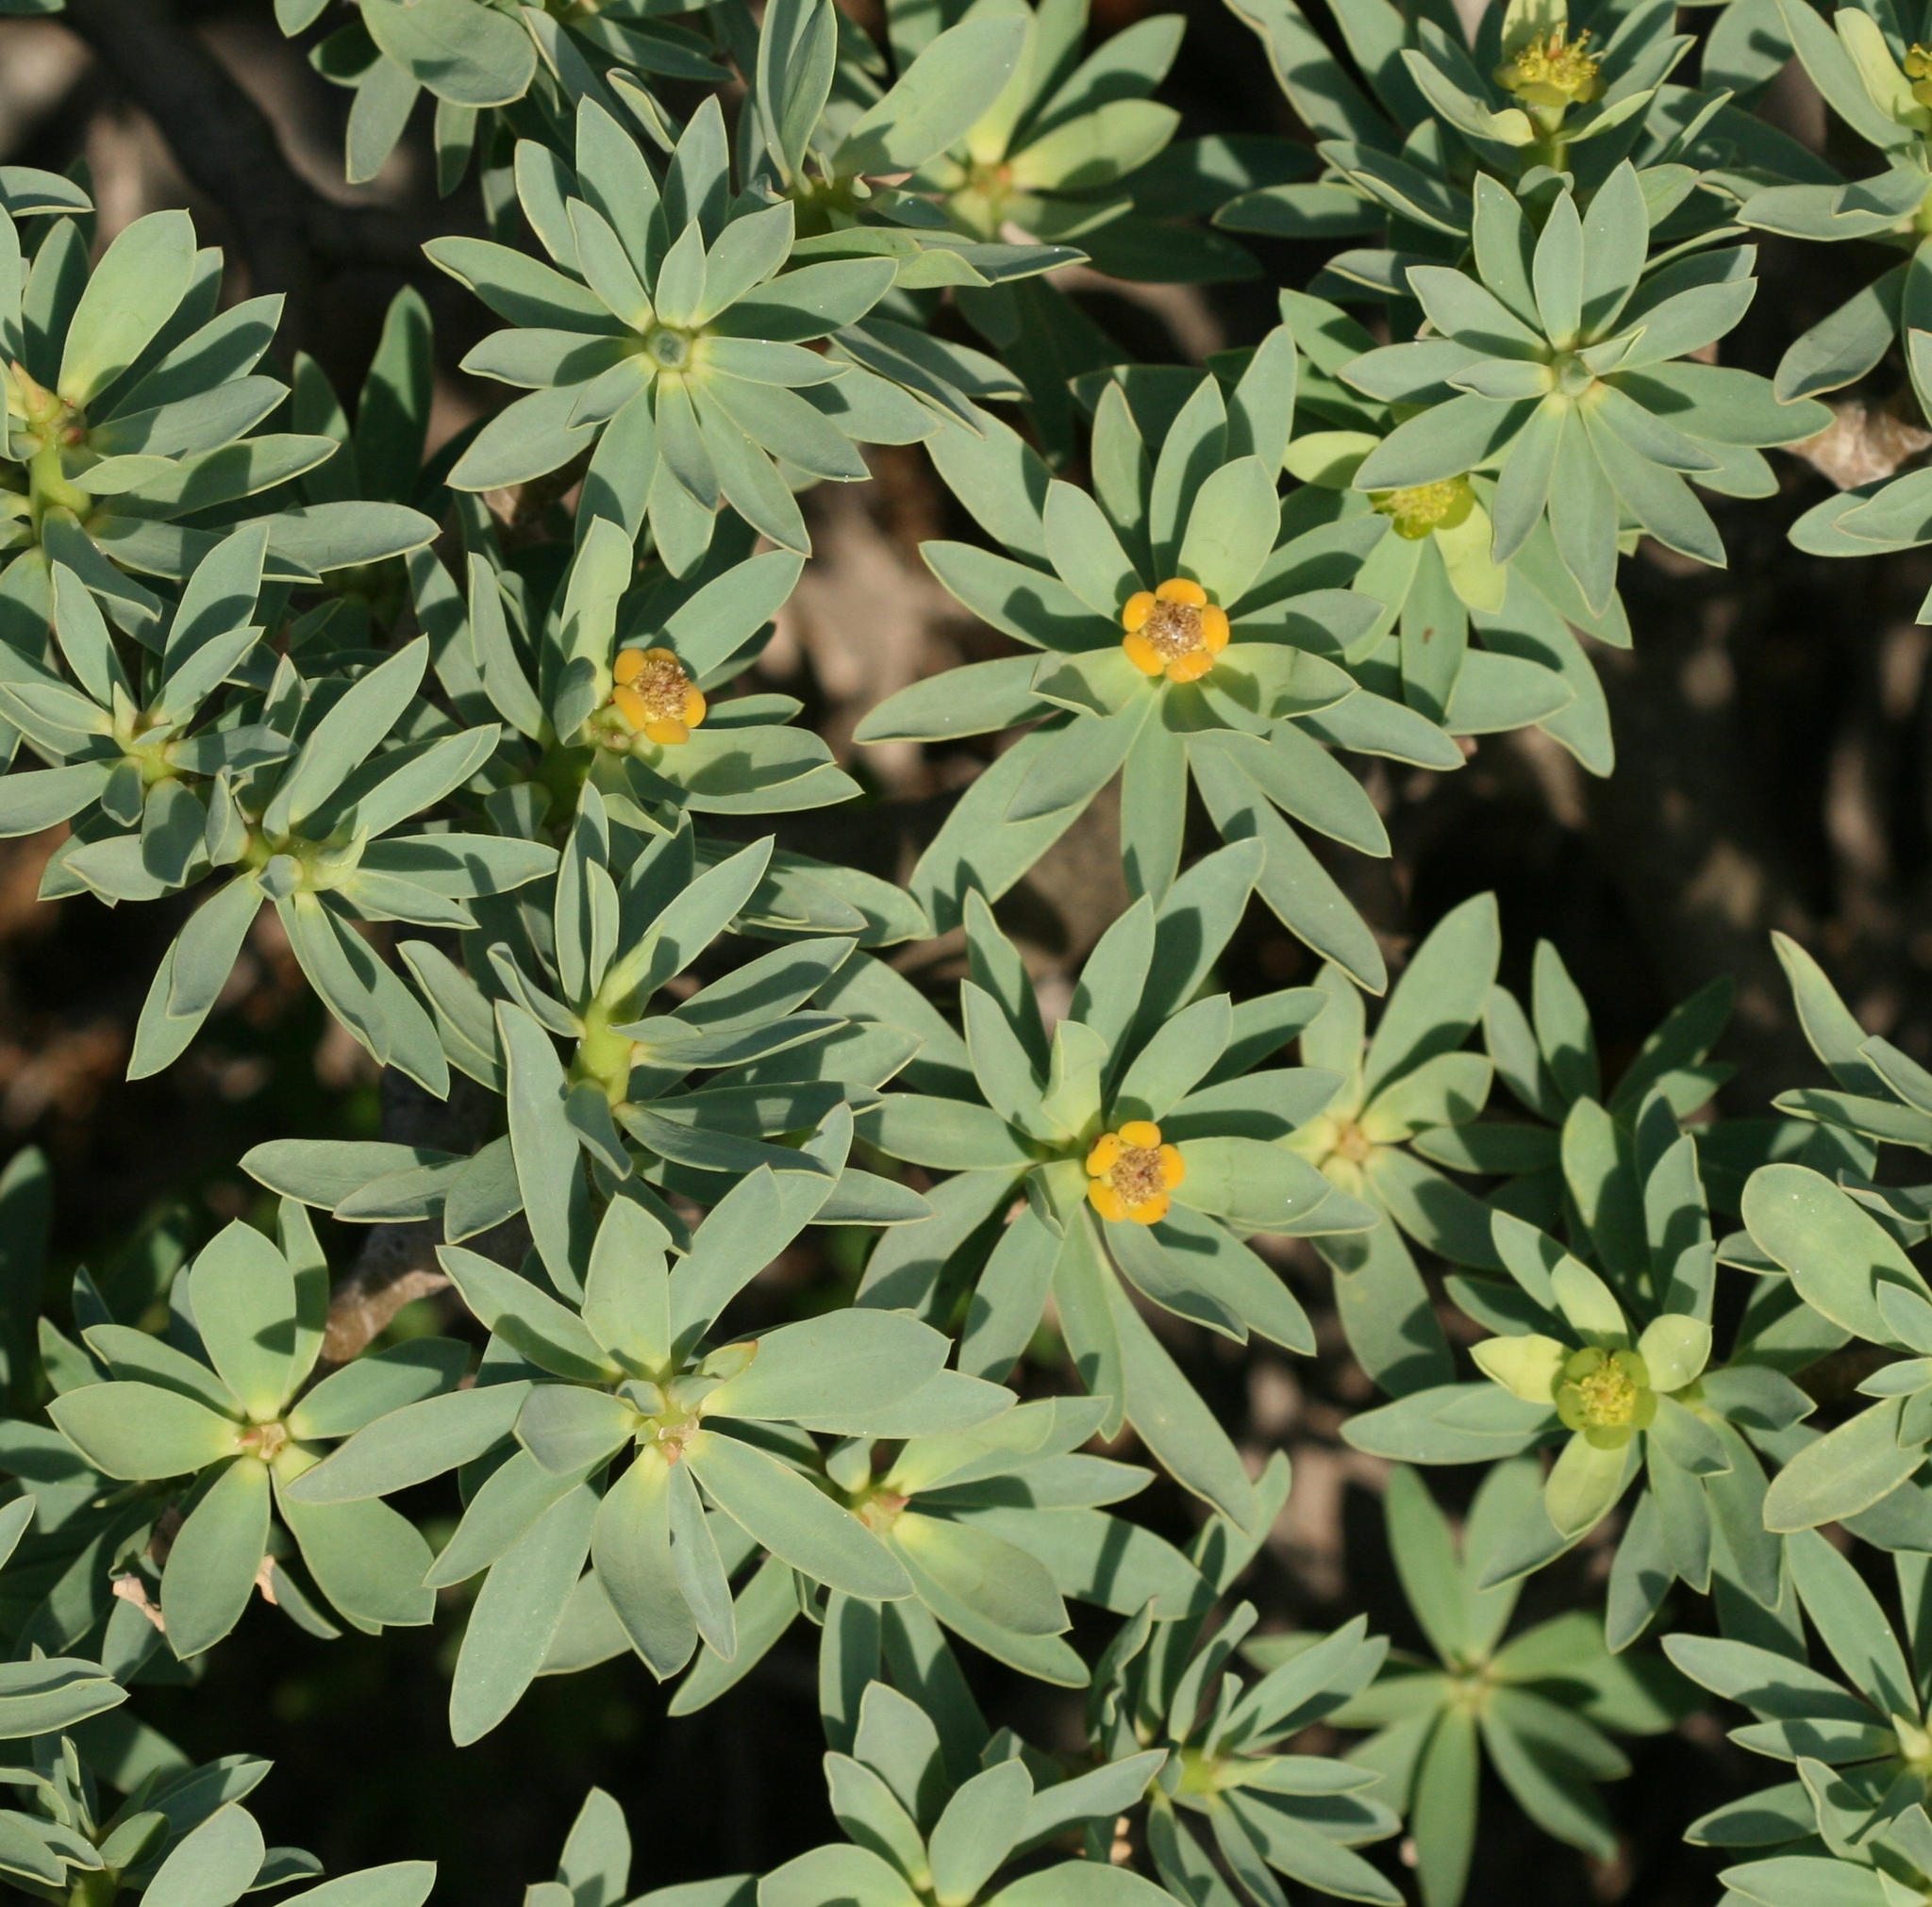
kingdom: Plantae
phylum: Tracheophyta
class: Magnoliopsida
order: Malpighiales
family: Euphorbiaceae
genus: Euphorbia
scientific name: Euphorbia balsamifera
